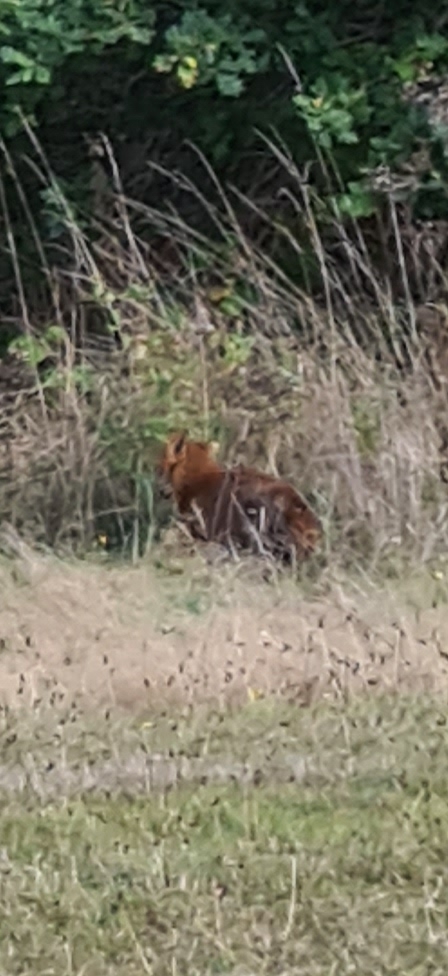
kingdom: Animalia
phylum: Chordata
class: Mammalia
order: Carnivora
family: Canidae
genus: Vulpes
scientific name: Vulpes vulpes
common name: Red fox
